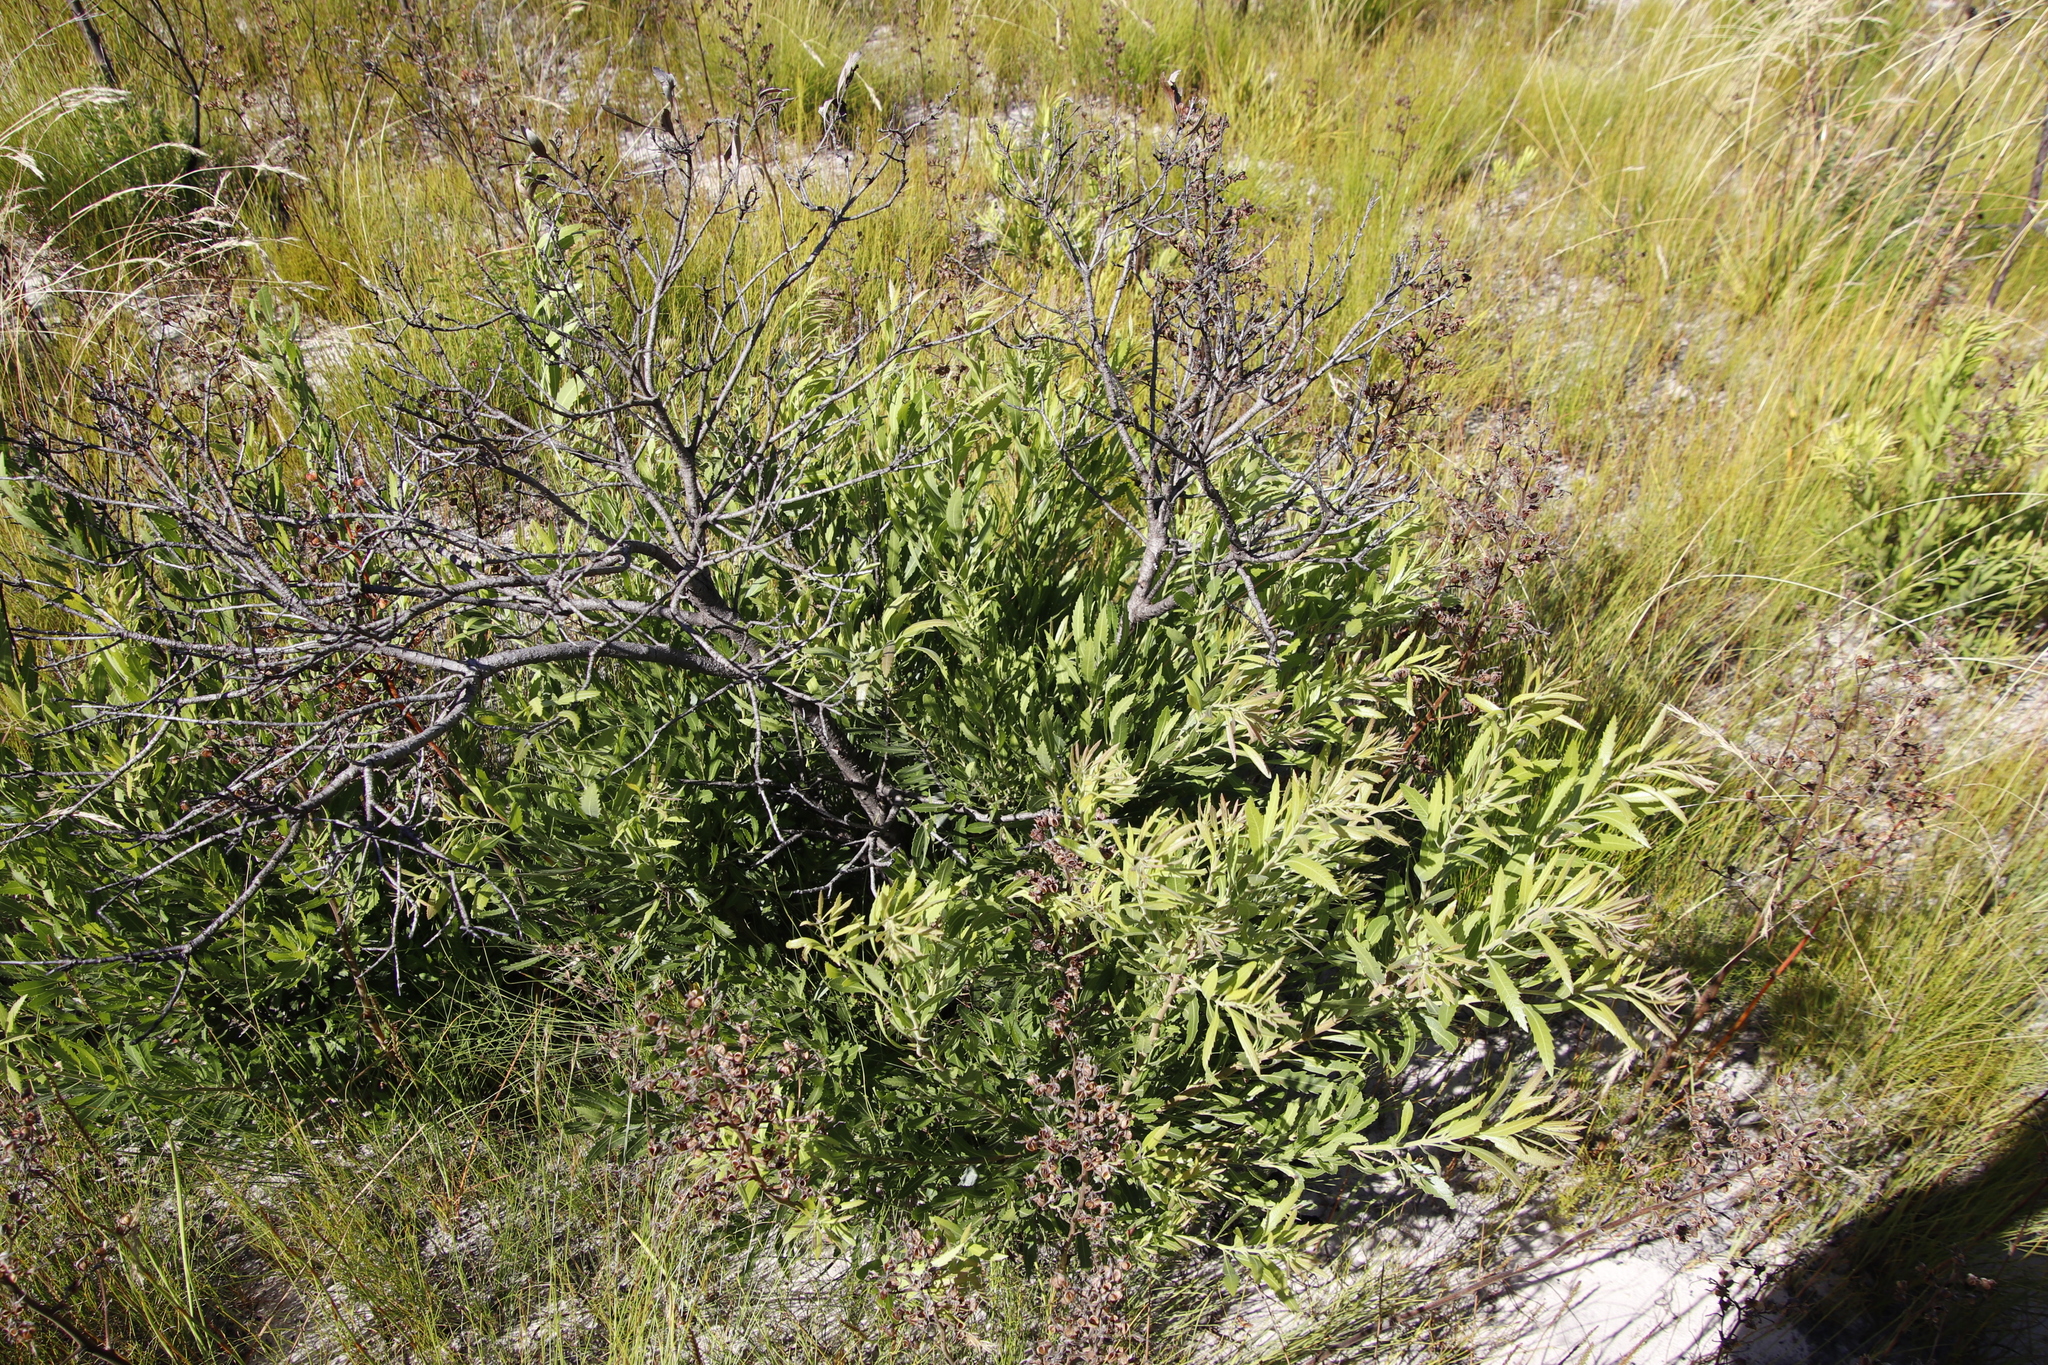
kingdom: Plantae
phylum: Tracheophyta
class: Magnoliopsida
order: Fagales
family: Myricaceae
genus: Morella
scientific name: Morella serrata
